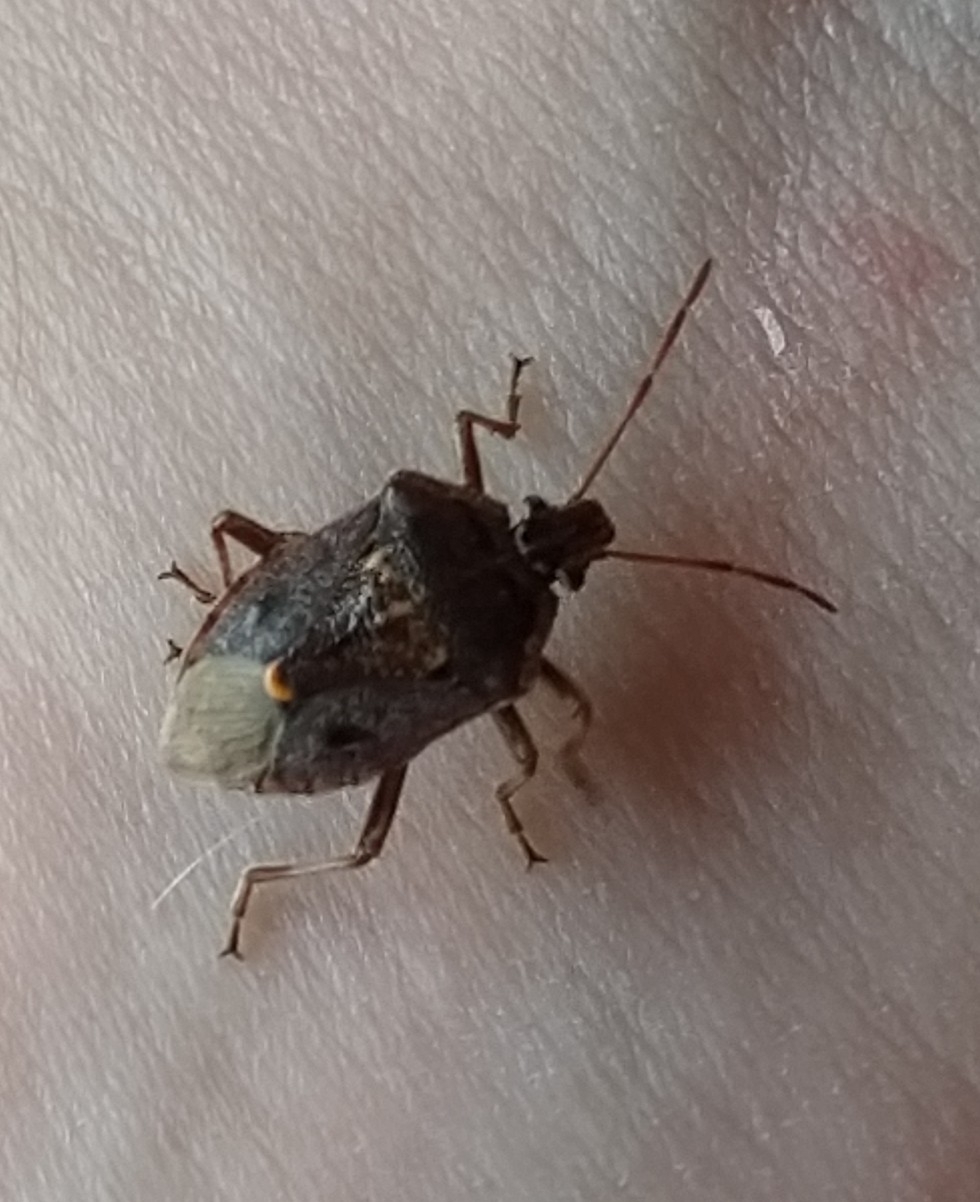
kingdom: Animalia
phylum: Arthropoda
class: Insecta
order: Hemiptera
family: Pentatomidae
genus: Cermatulus
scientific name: Cermatulus nasalis
